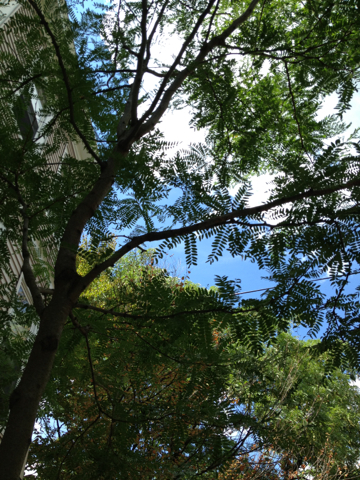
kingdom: Plantae
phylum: Tracheophyta
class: Magnoliopsida
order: Fabales
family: Fabaceae
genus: Gleditsia
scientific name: Gleditsia triacanthos
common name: Common honeylocust
